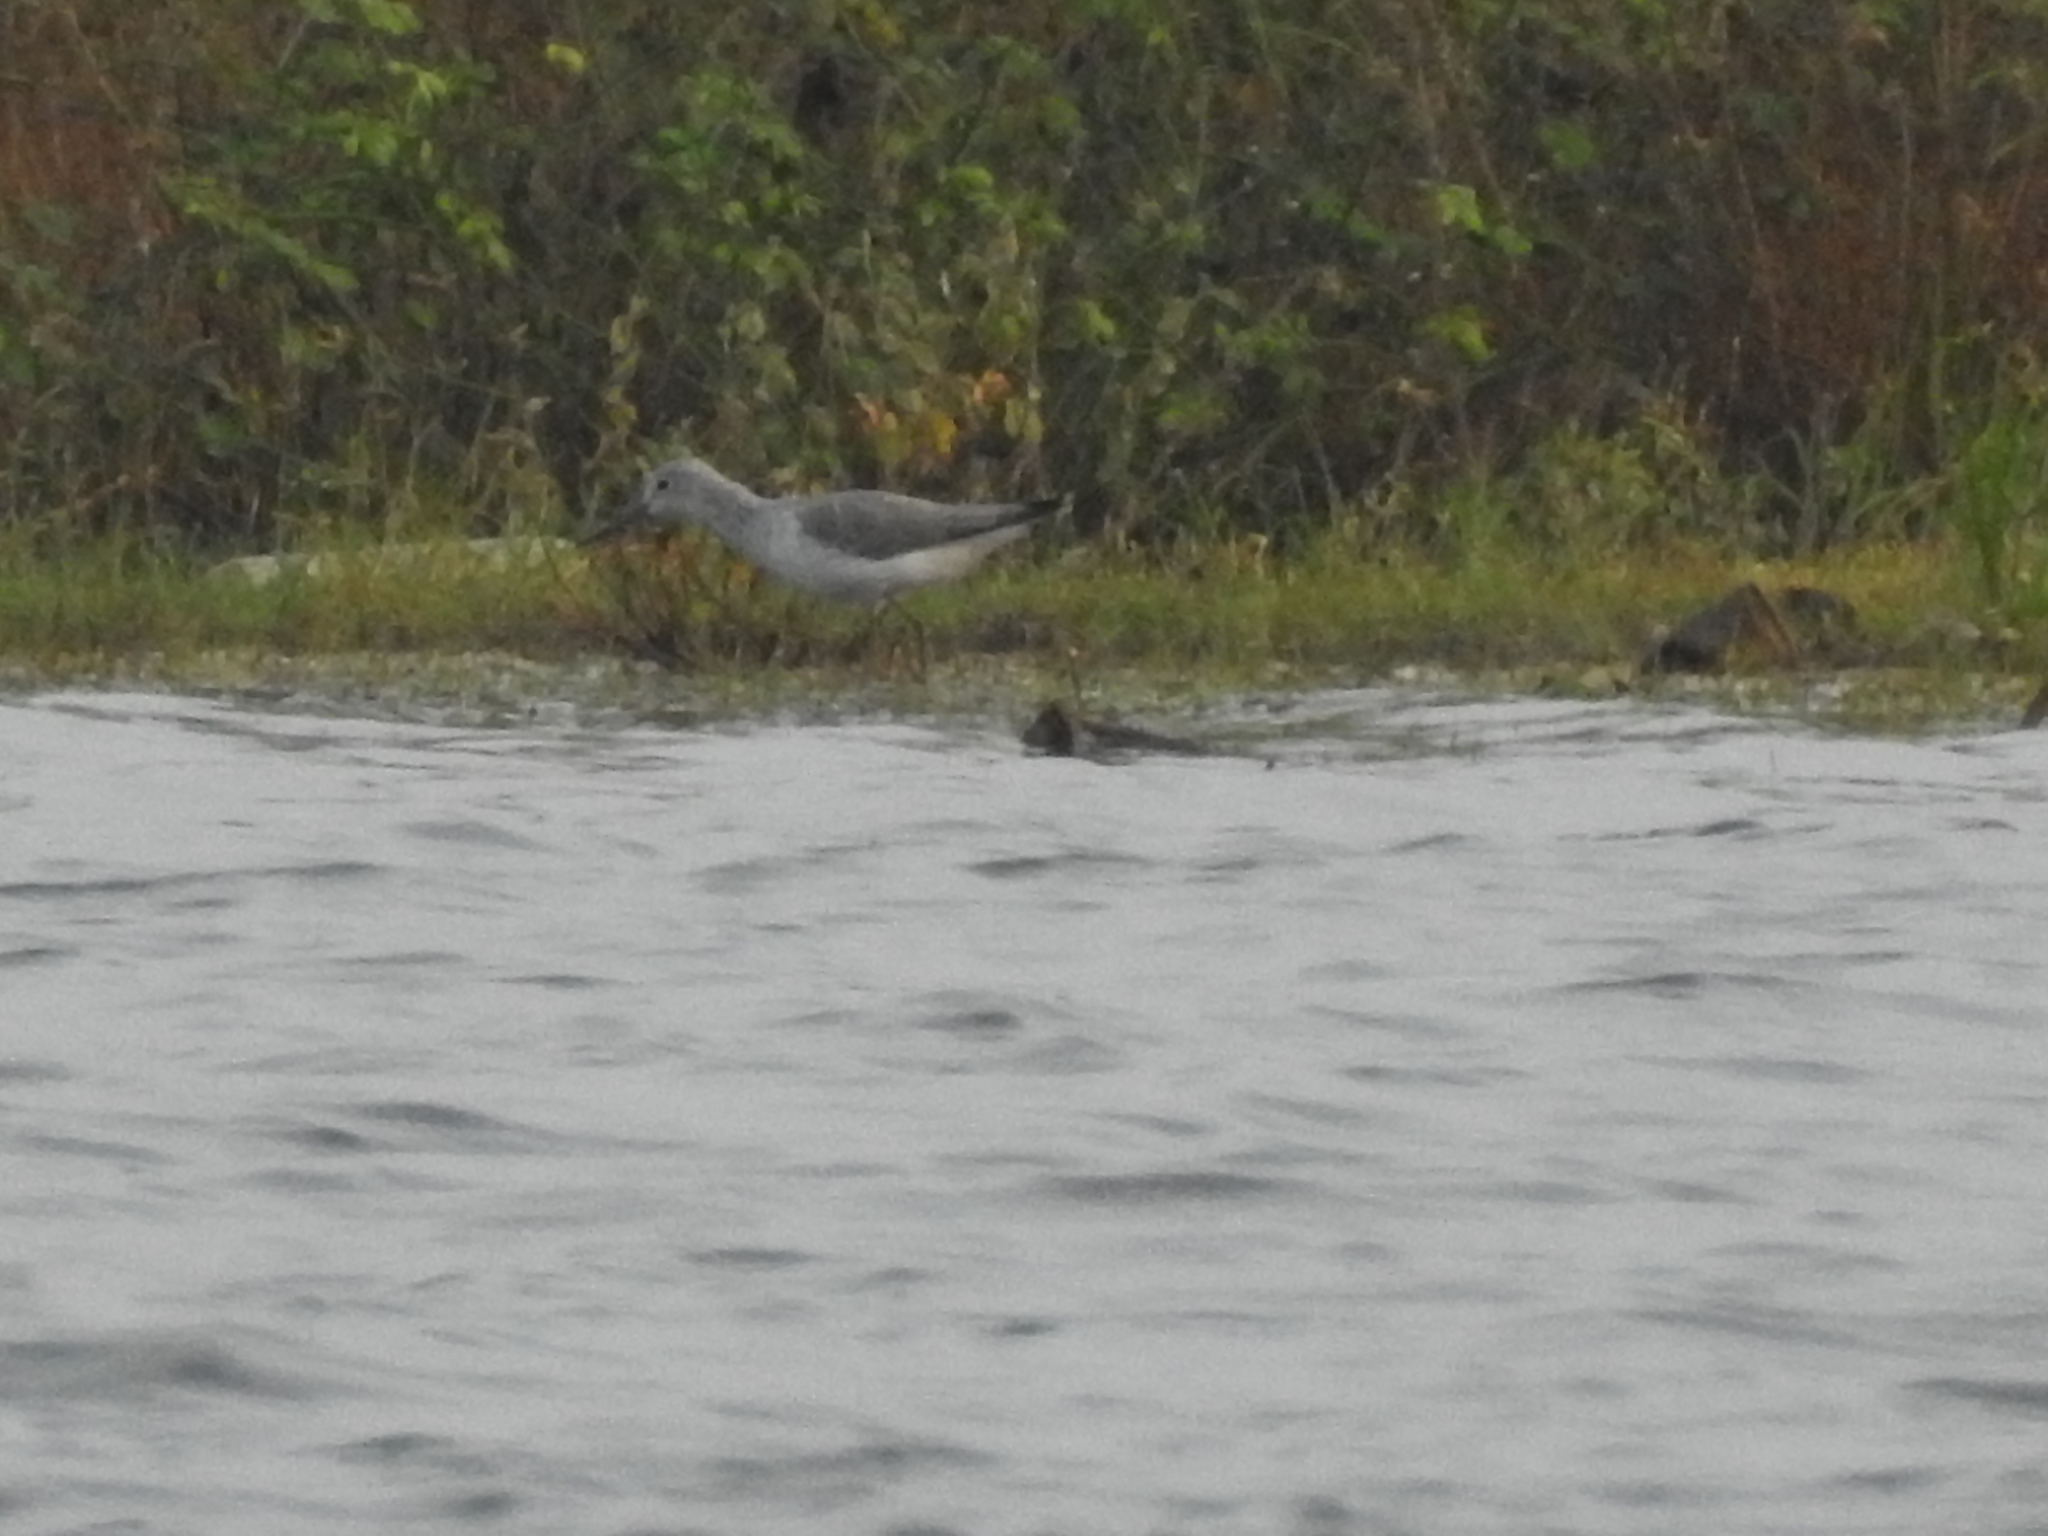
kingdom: Animalia
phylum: Chordata
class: Aves
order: Charadriiformes
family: Scolopacidae
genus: Tringa
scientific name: Tringa nebularia
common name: Common greenshank
